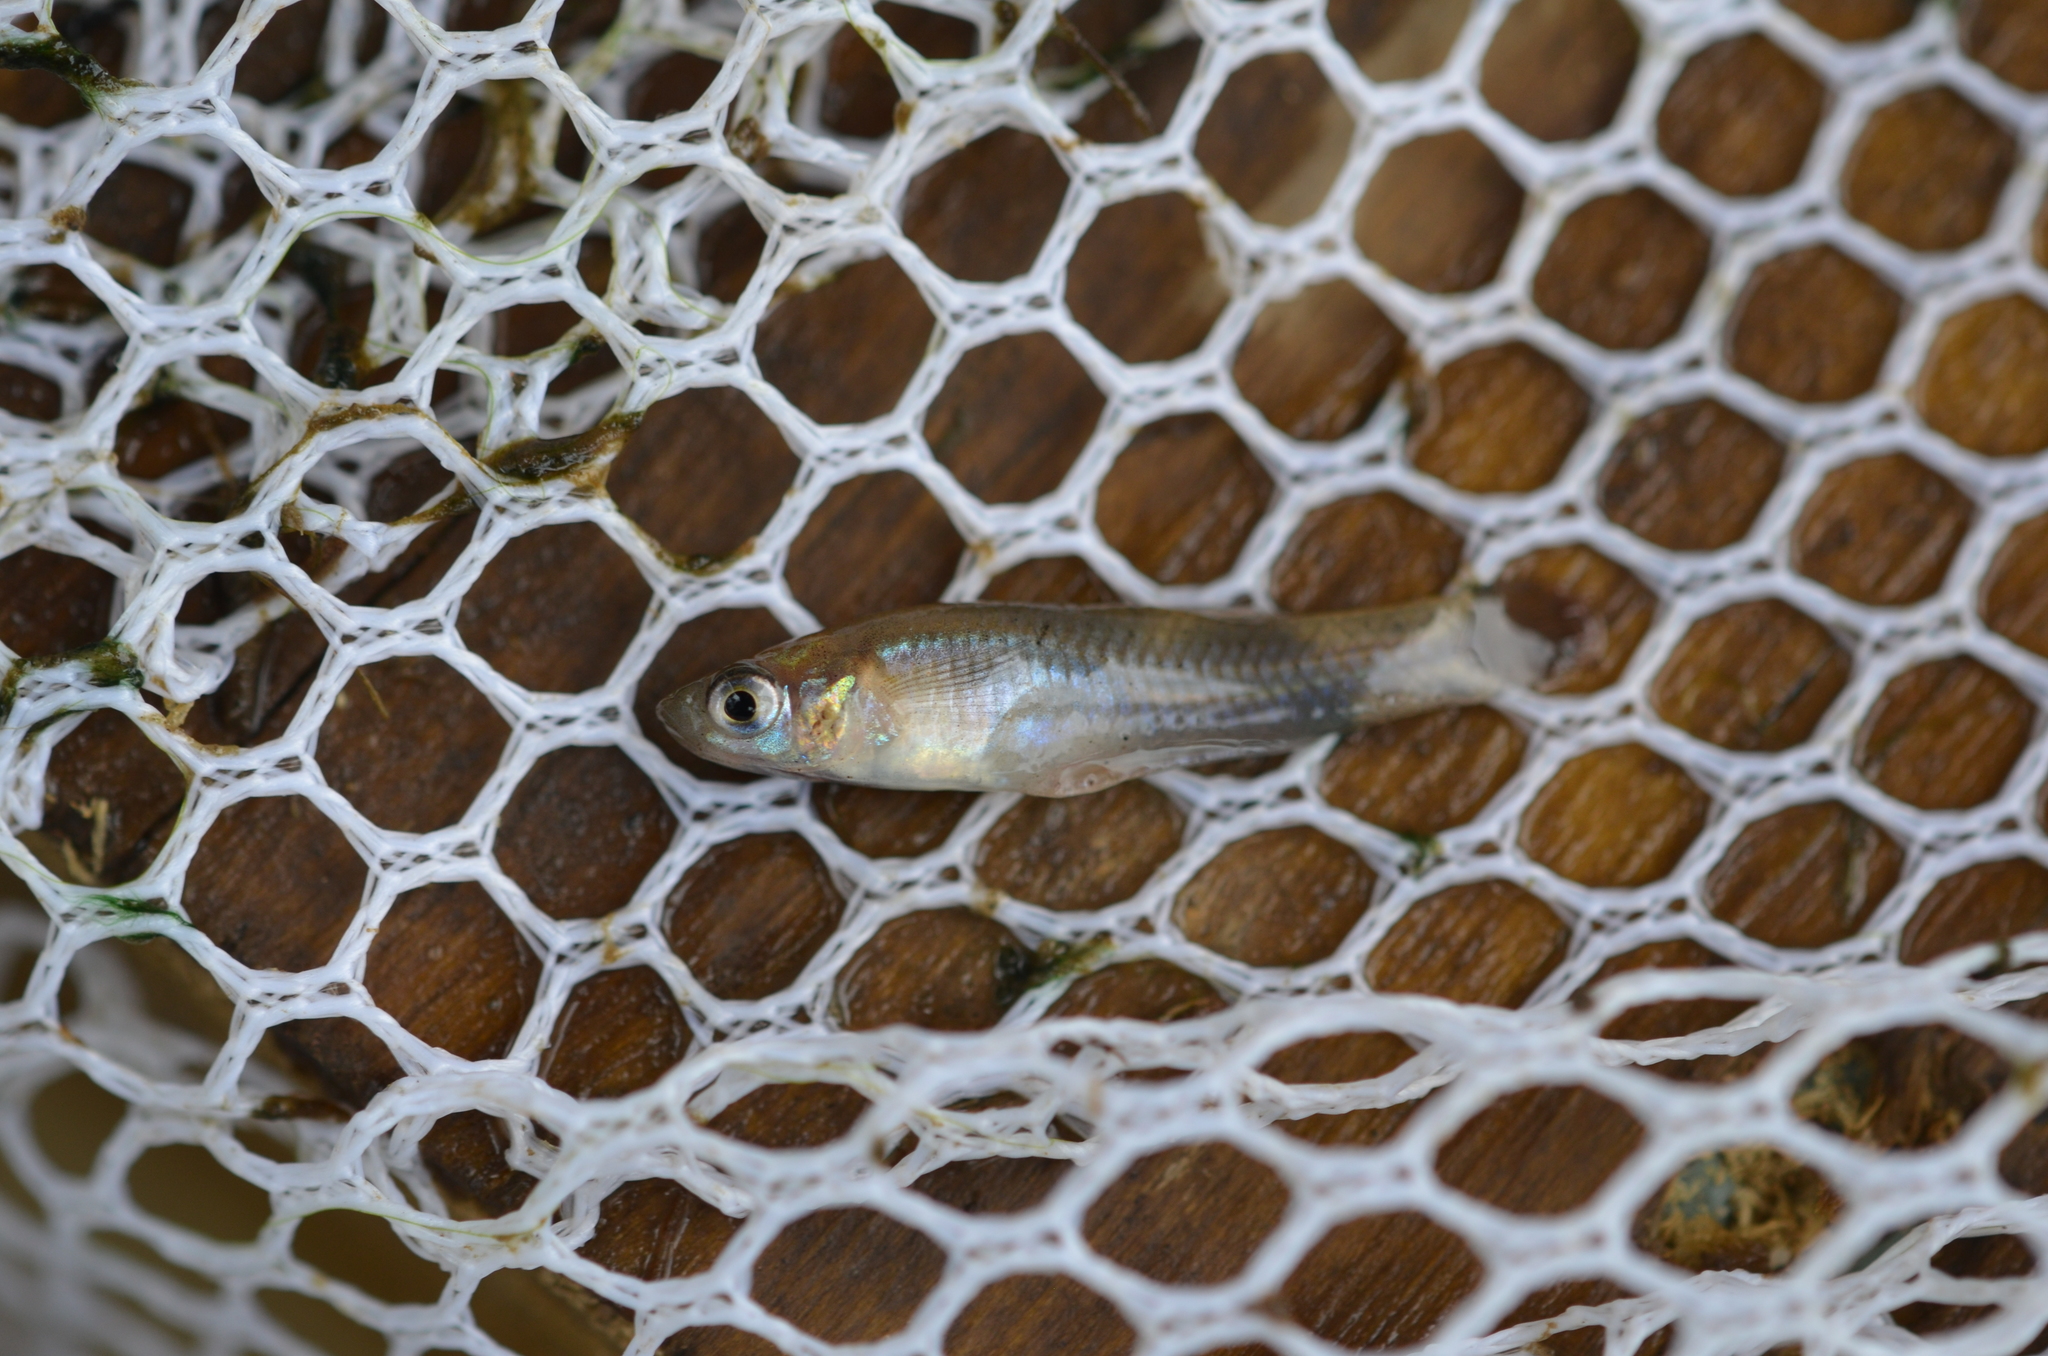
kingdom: Animalia
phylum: Chordata
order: Cyprinodontiformes
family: Poeciliidae
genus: Gambusia
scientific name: Gambusia affinis
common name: Mosquitofish
